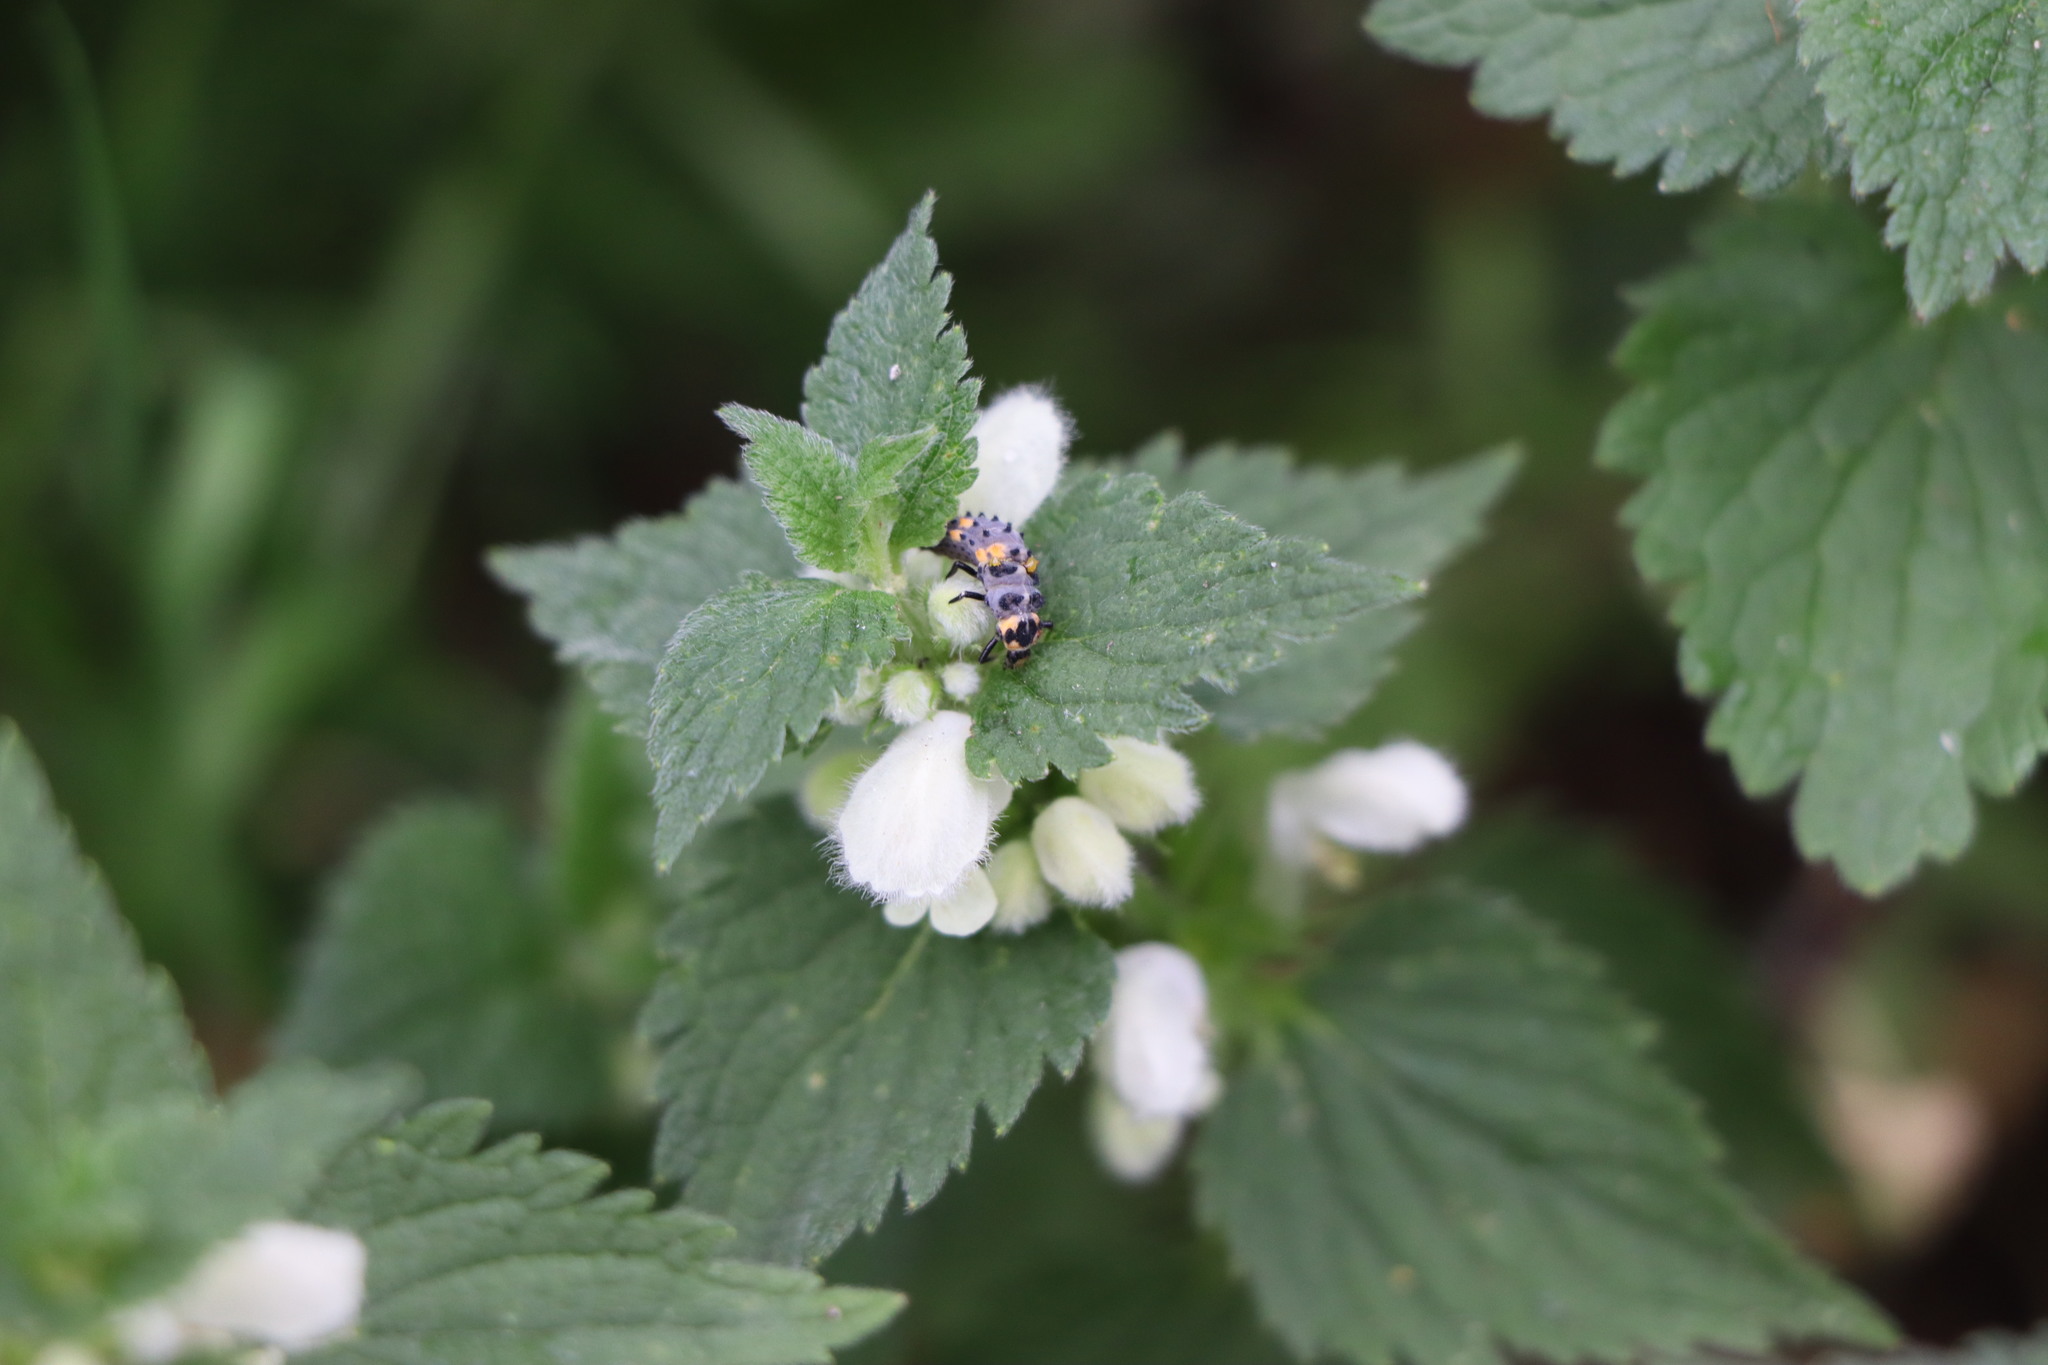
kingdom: Animalia
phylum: Arthropoda
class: Insecta
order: Coleoptera
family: Coccinellidae
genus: Coccinella
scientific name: Coccinella septempunctata
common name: Sevenspotted lady beetle
